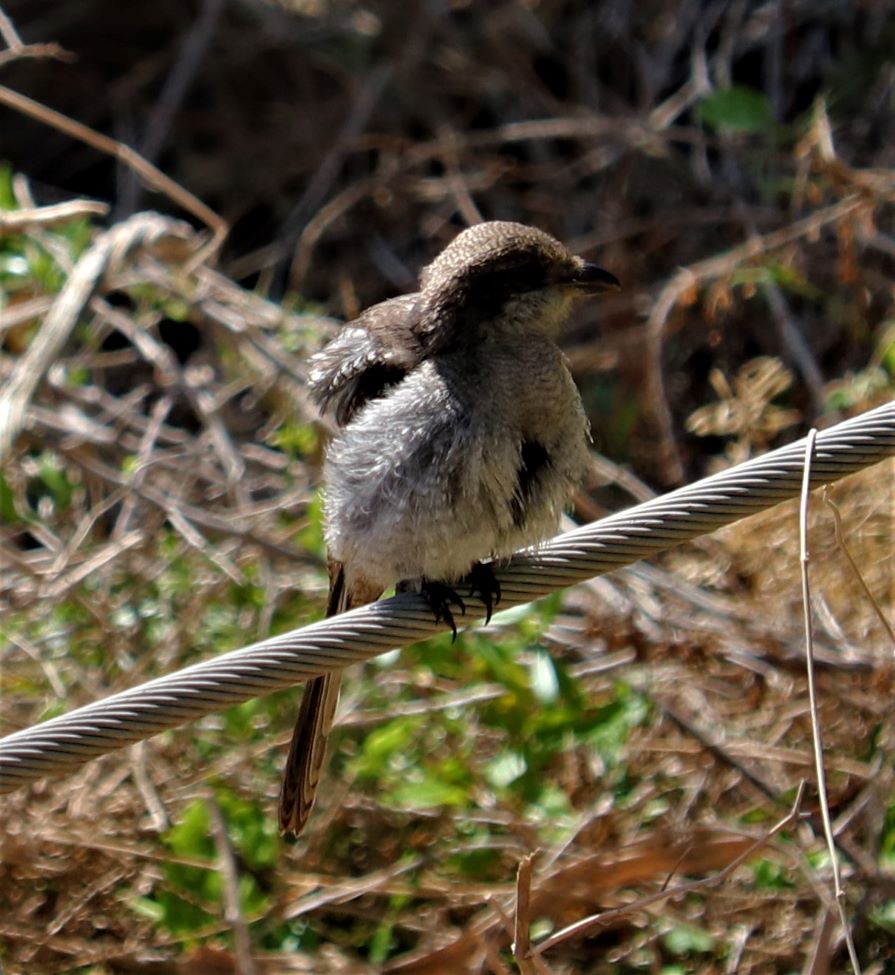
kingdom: Animalia
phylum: Chordata
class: Aves
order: Passeriformes
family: Laniidae
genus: Lanius
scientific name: Lanius collaris
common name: Southern fiscal
